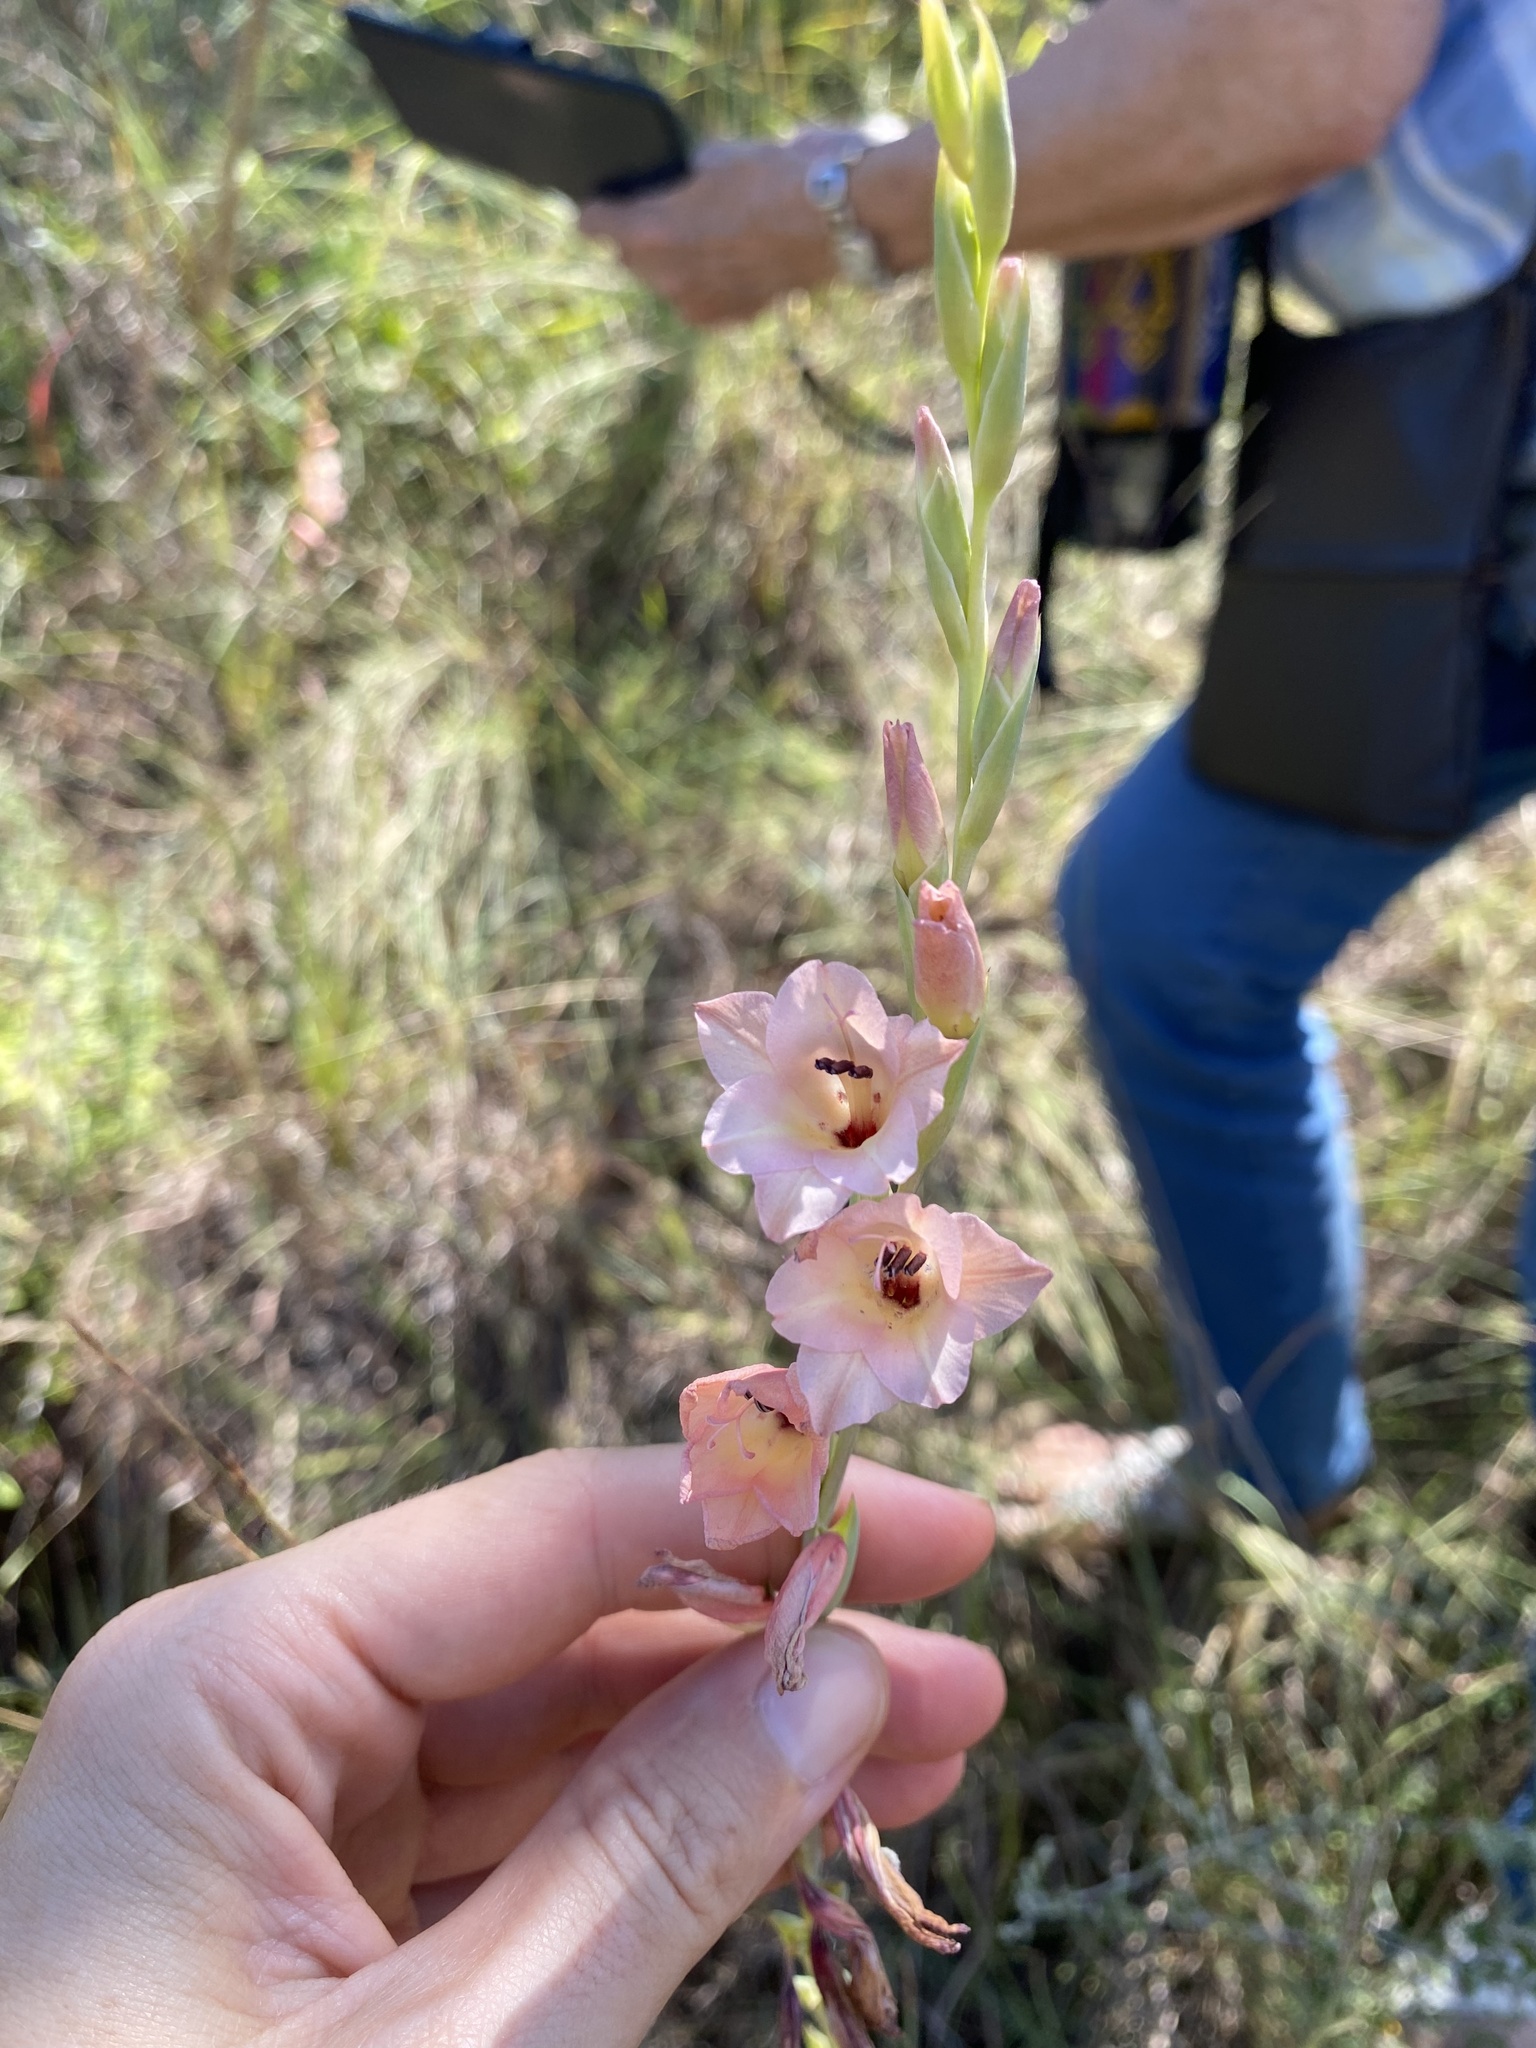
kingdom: Plantae
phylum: Tracheophyta
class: Liliopsida
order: Asparagales
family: Iridaceae
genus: Gladiolus
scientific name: Gladiolus densiflorus
